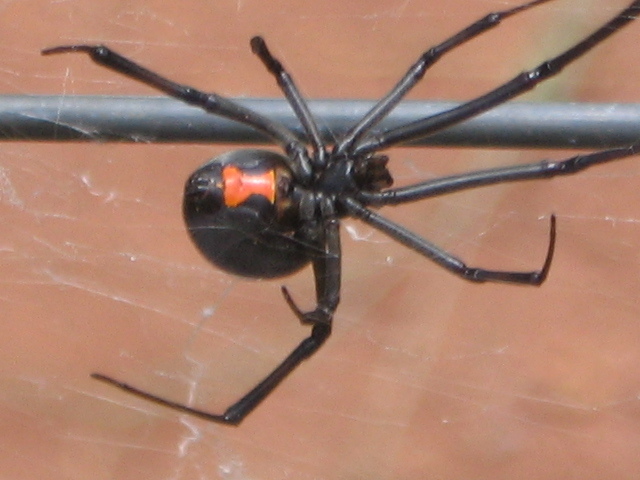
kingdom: Animalia
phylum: Arthropoda
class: Arachnida
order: Araneae
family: Theridiidae
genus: Latrodectus
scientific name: Latrodectus geometricus
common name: Brown widow spider
